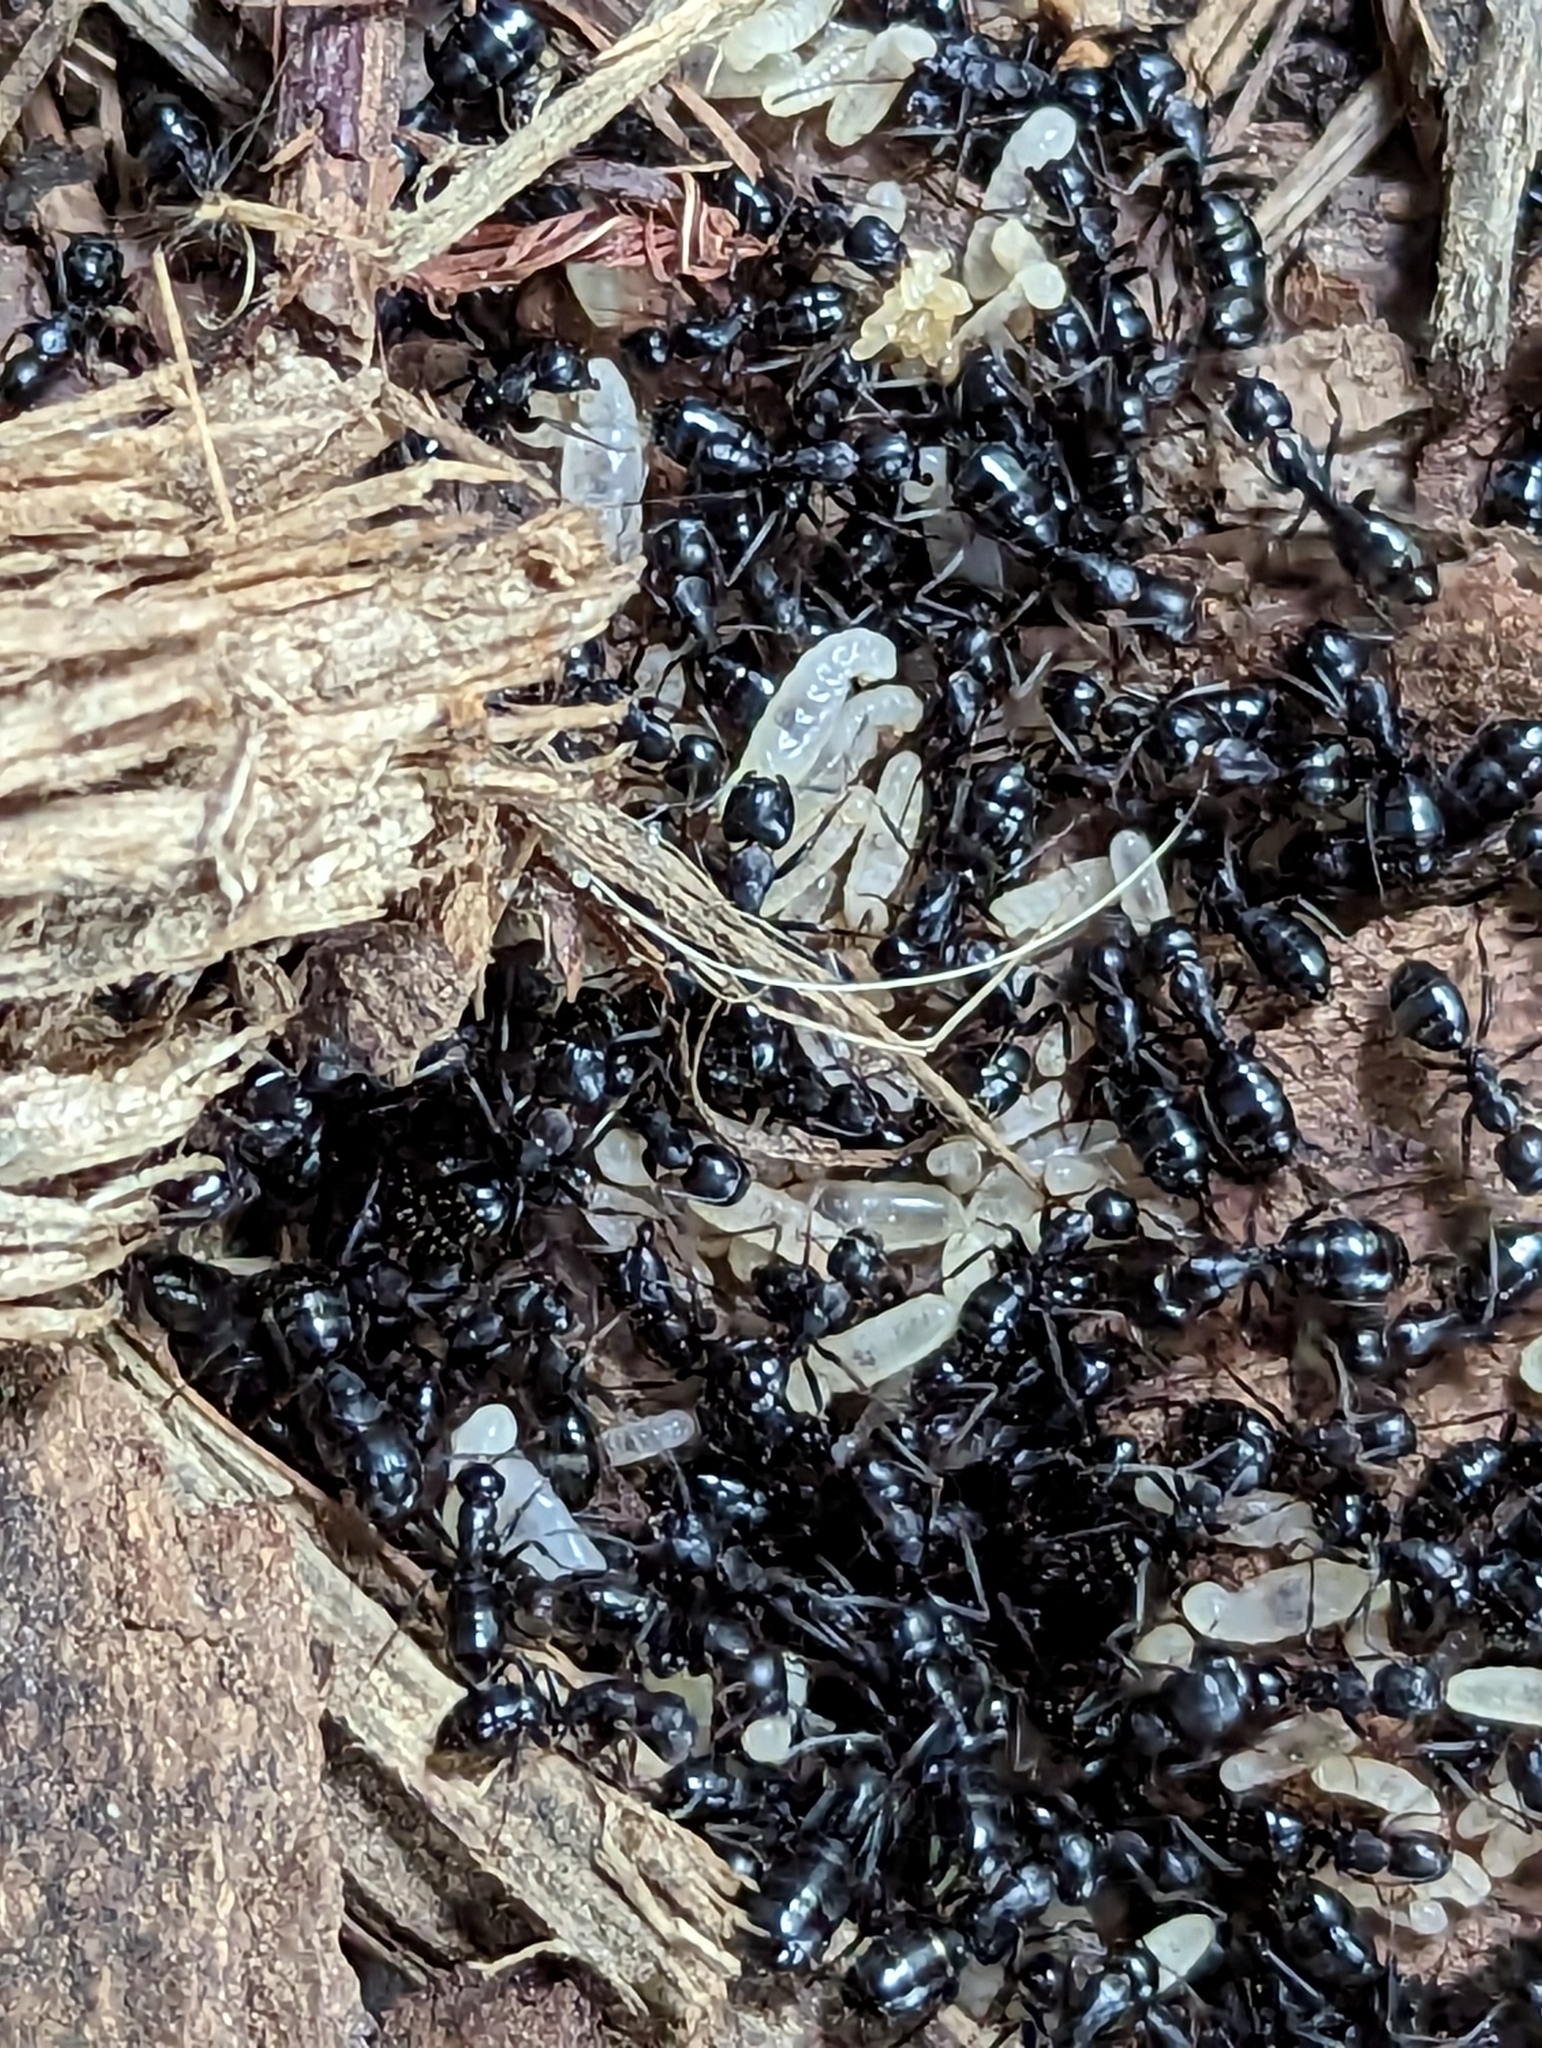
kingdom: Animalia
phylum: Arthropoda
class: Insecta
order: Hymenoptera
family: Formicidae
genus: Camponotus
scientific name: Camponotus nearcticus
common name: Smaller carpenter ant
